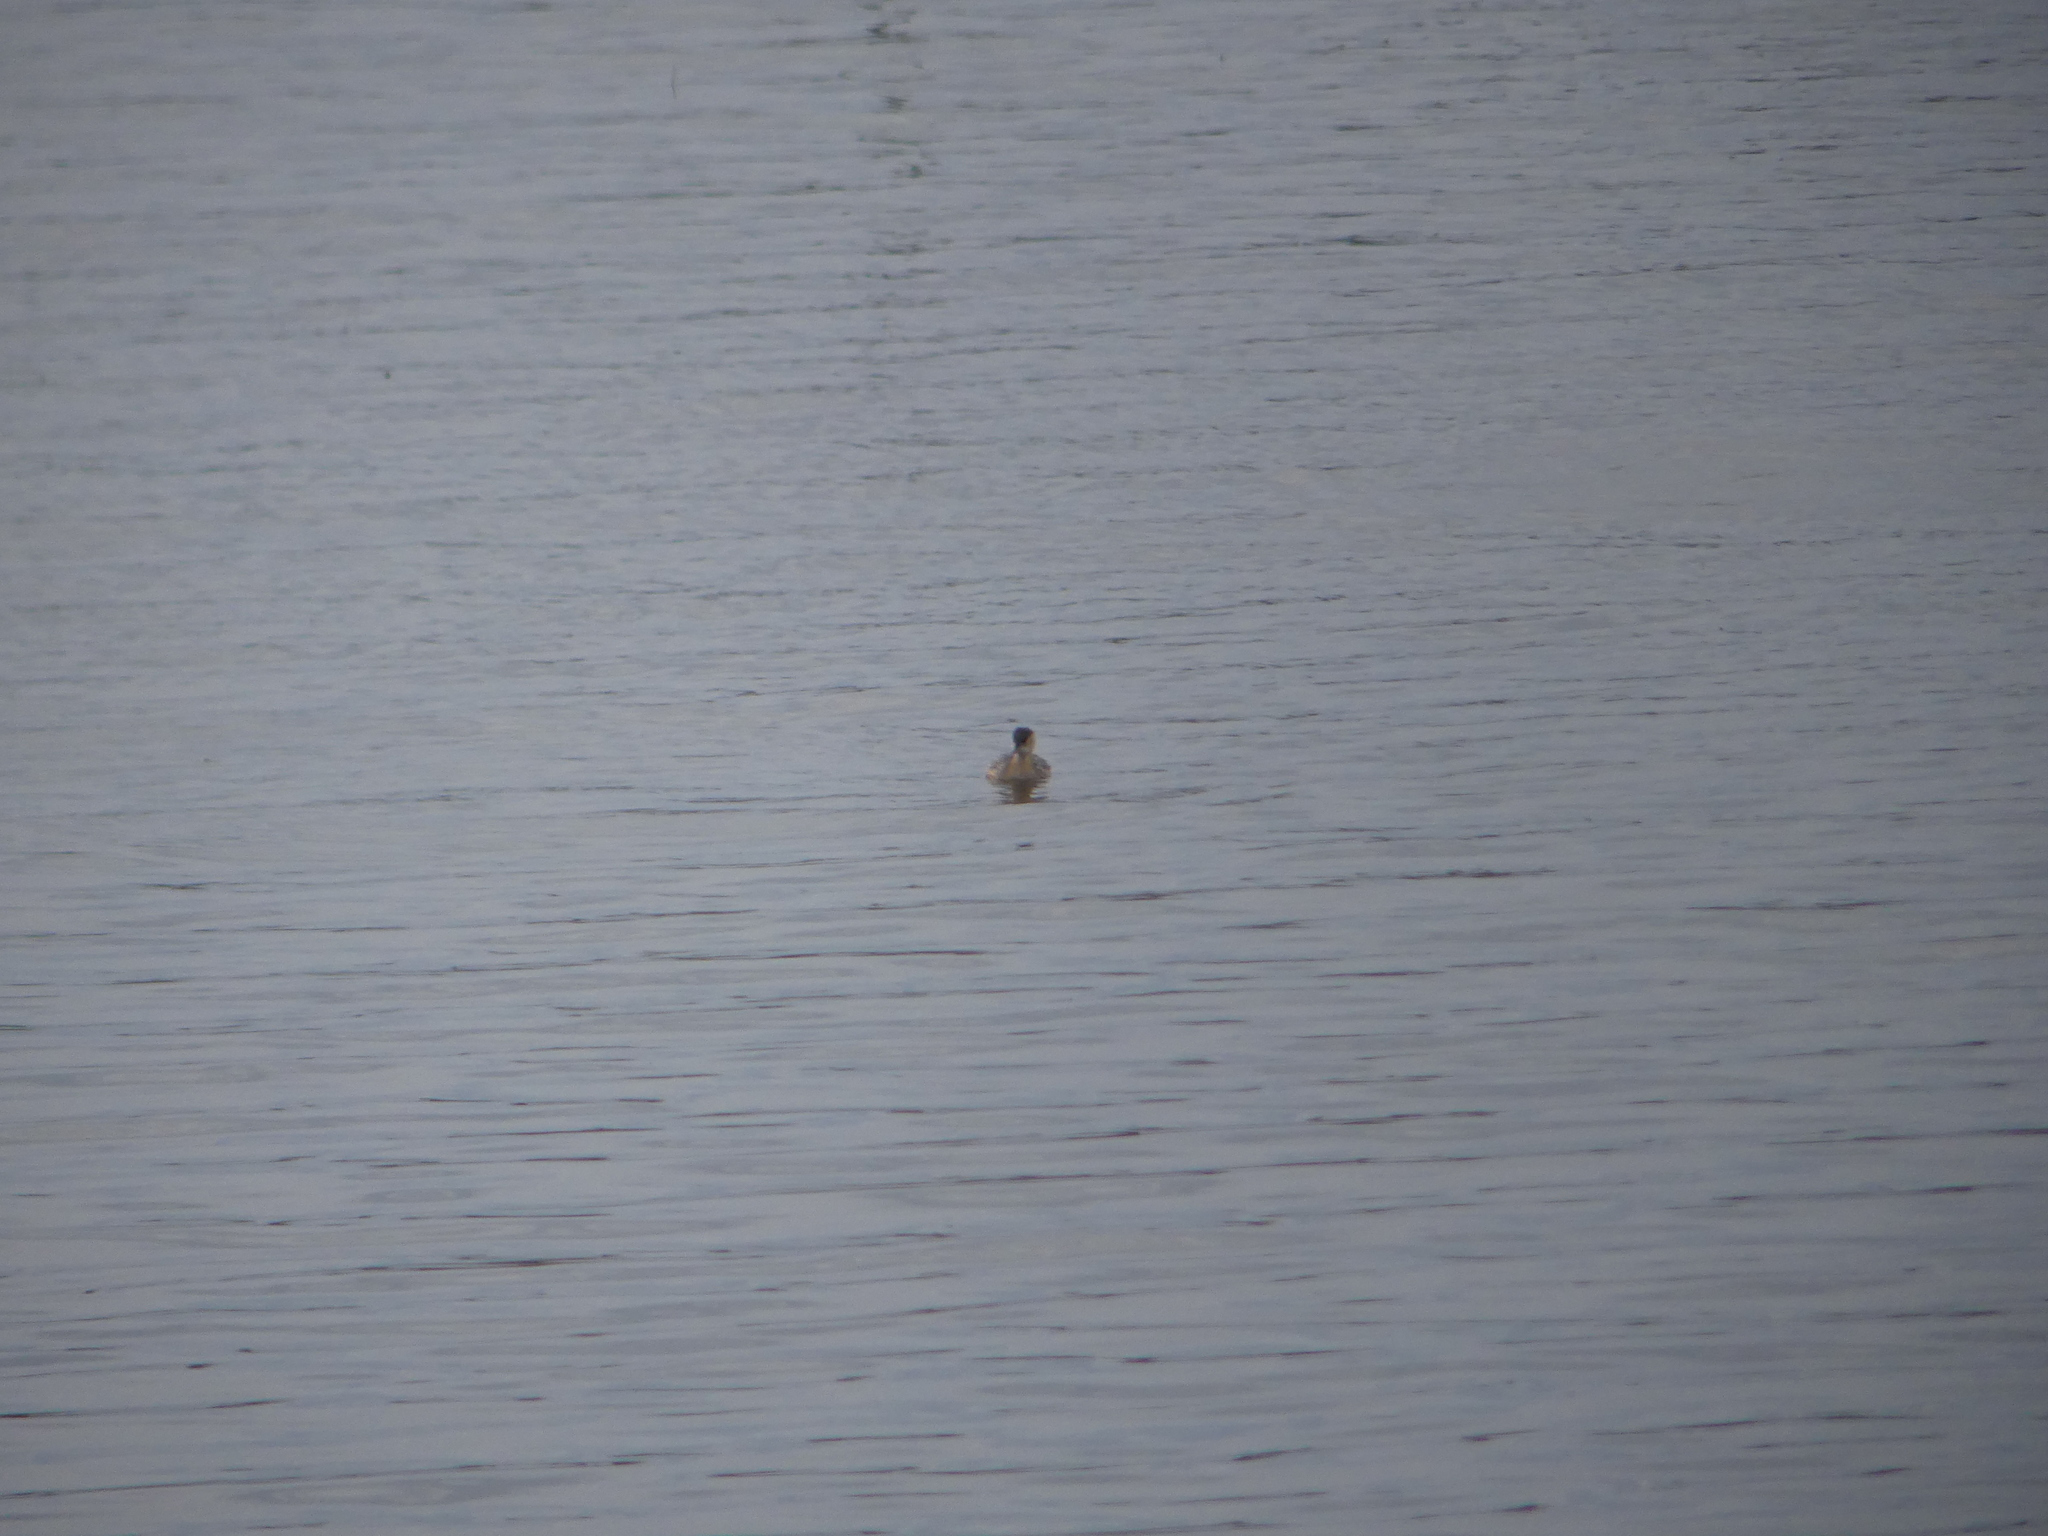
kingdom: Animalia
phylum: Chordata
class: Aves
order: Podicipediformes
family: Podicipedidae
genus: Tachybaptus
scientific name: Tachybaptus ruficollis
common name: Little grebe
